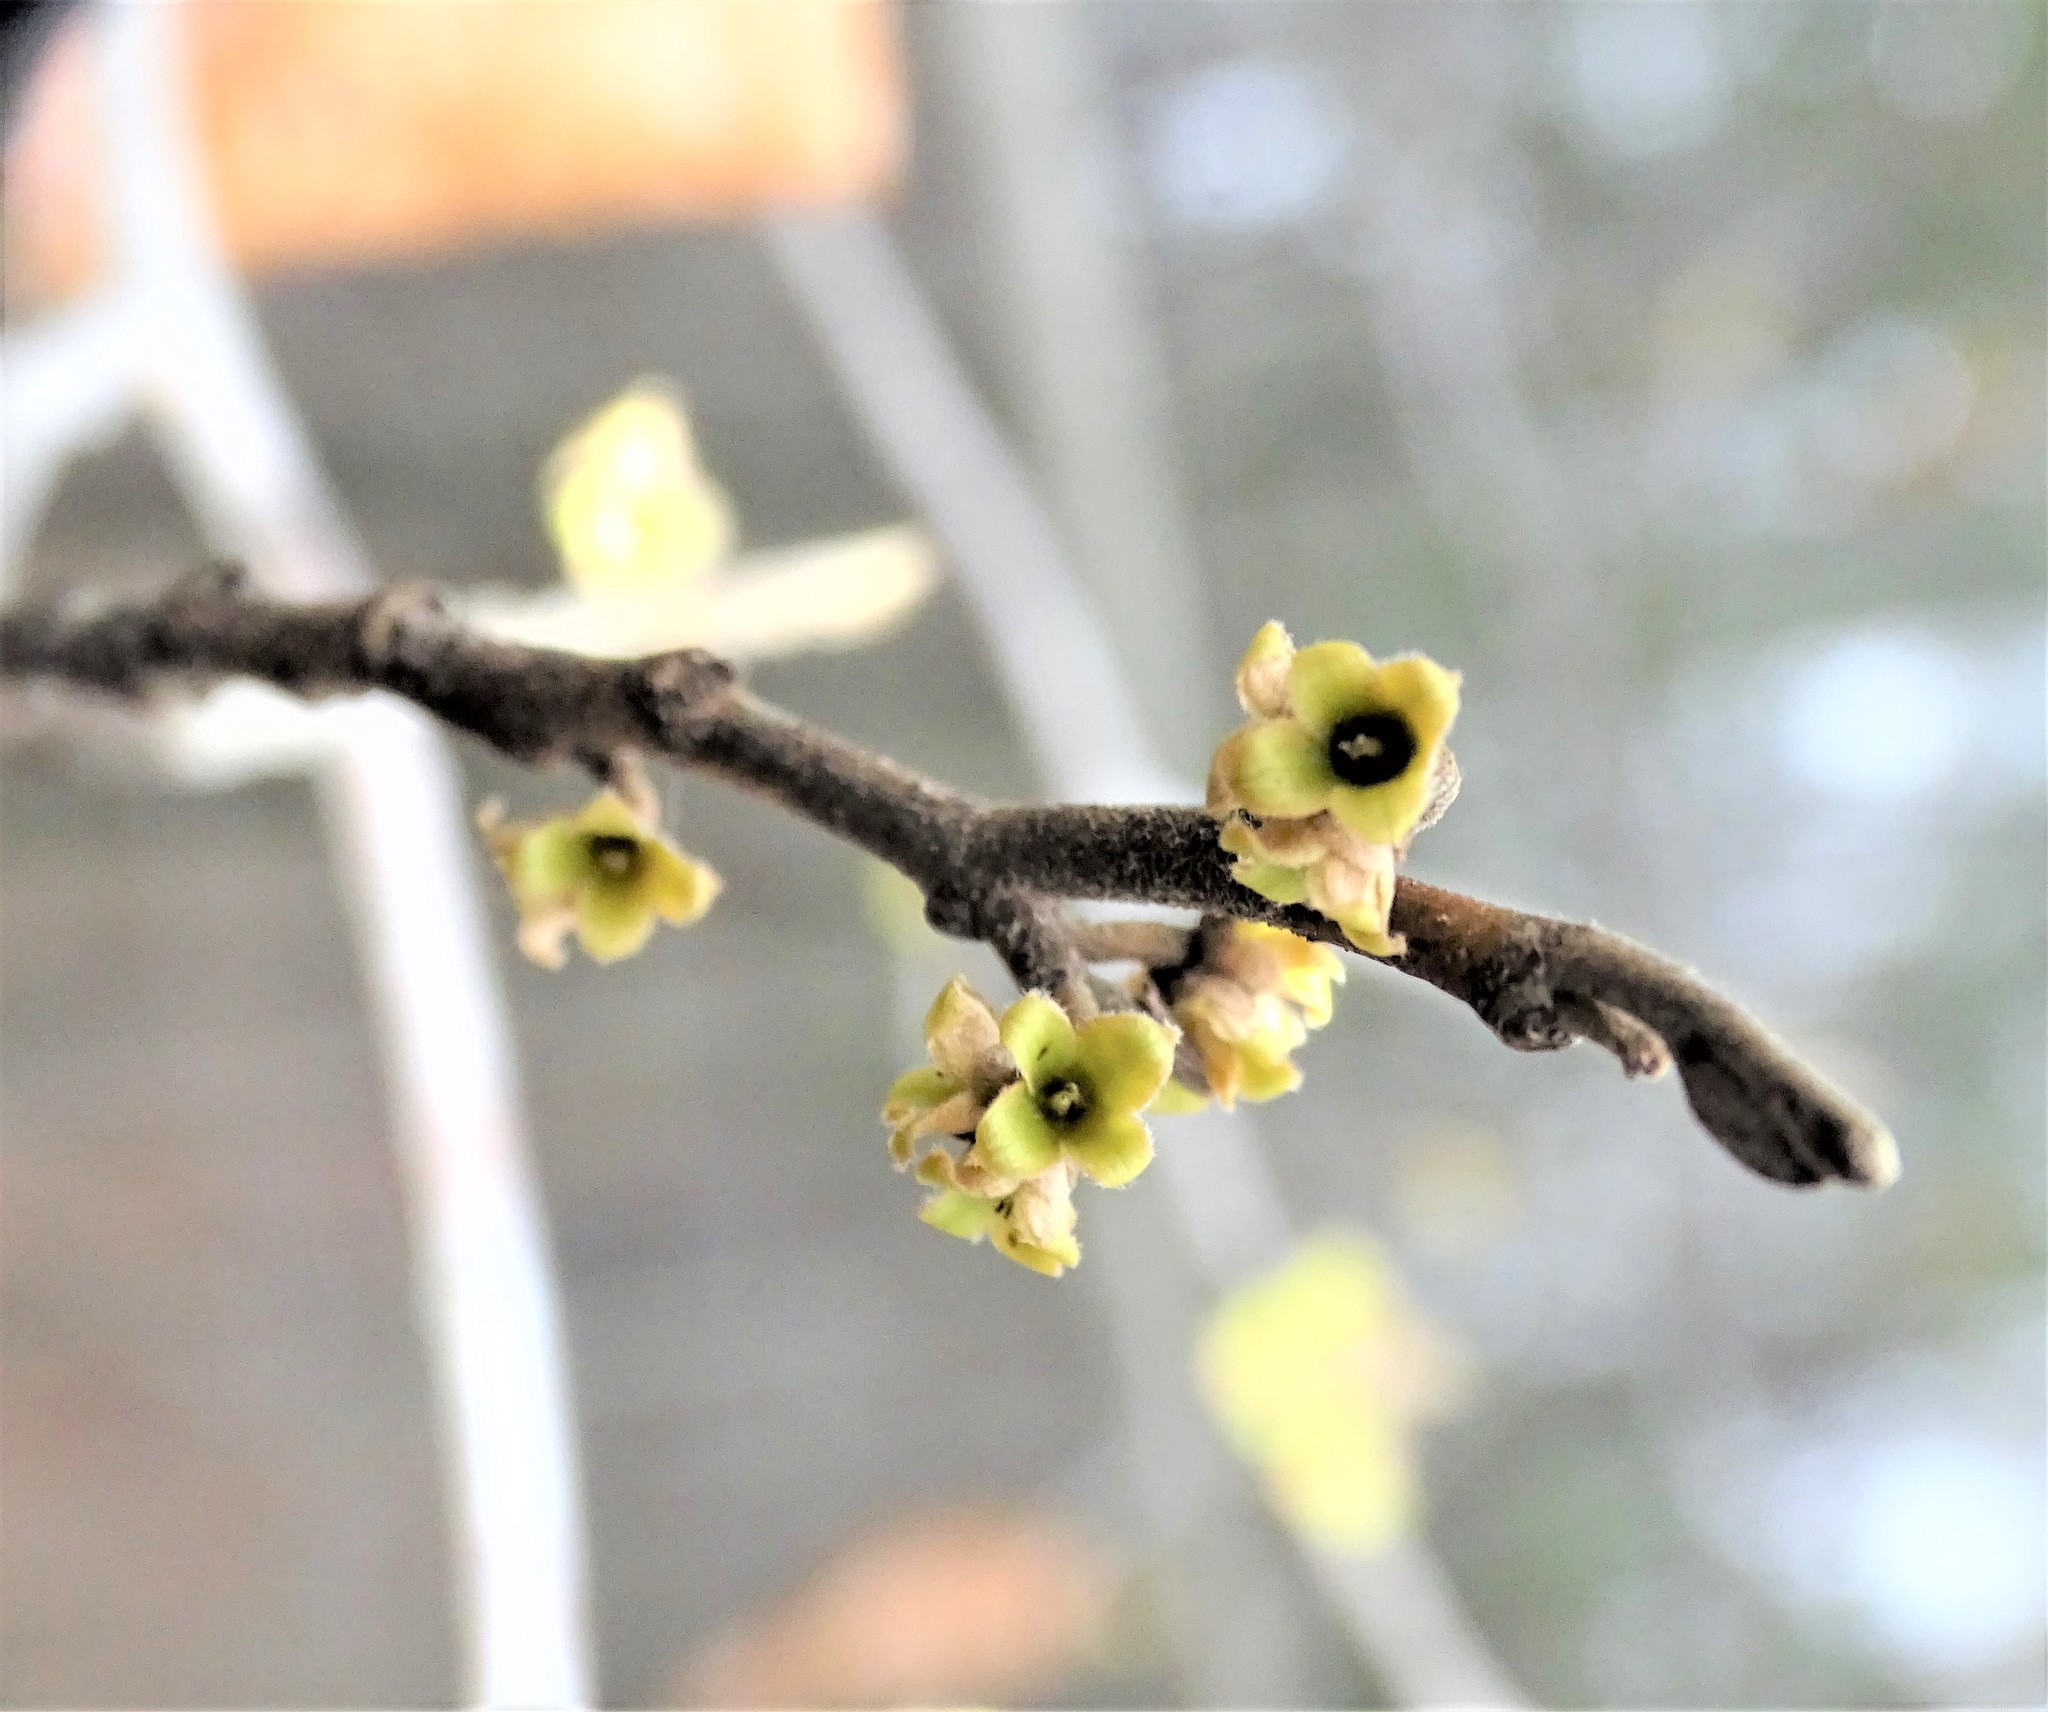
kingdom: Plantae
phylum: Tracheophyta
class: Magnoliopsida
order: Saxifragales
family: Hamamelidaceae
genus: Hamamelis
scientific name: Hamamelis virginiana
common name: Witch-hazel
